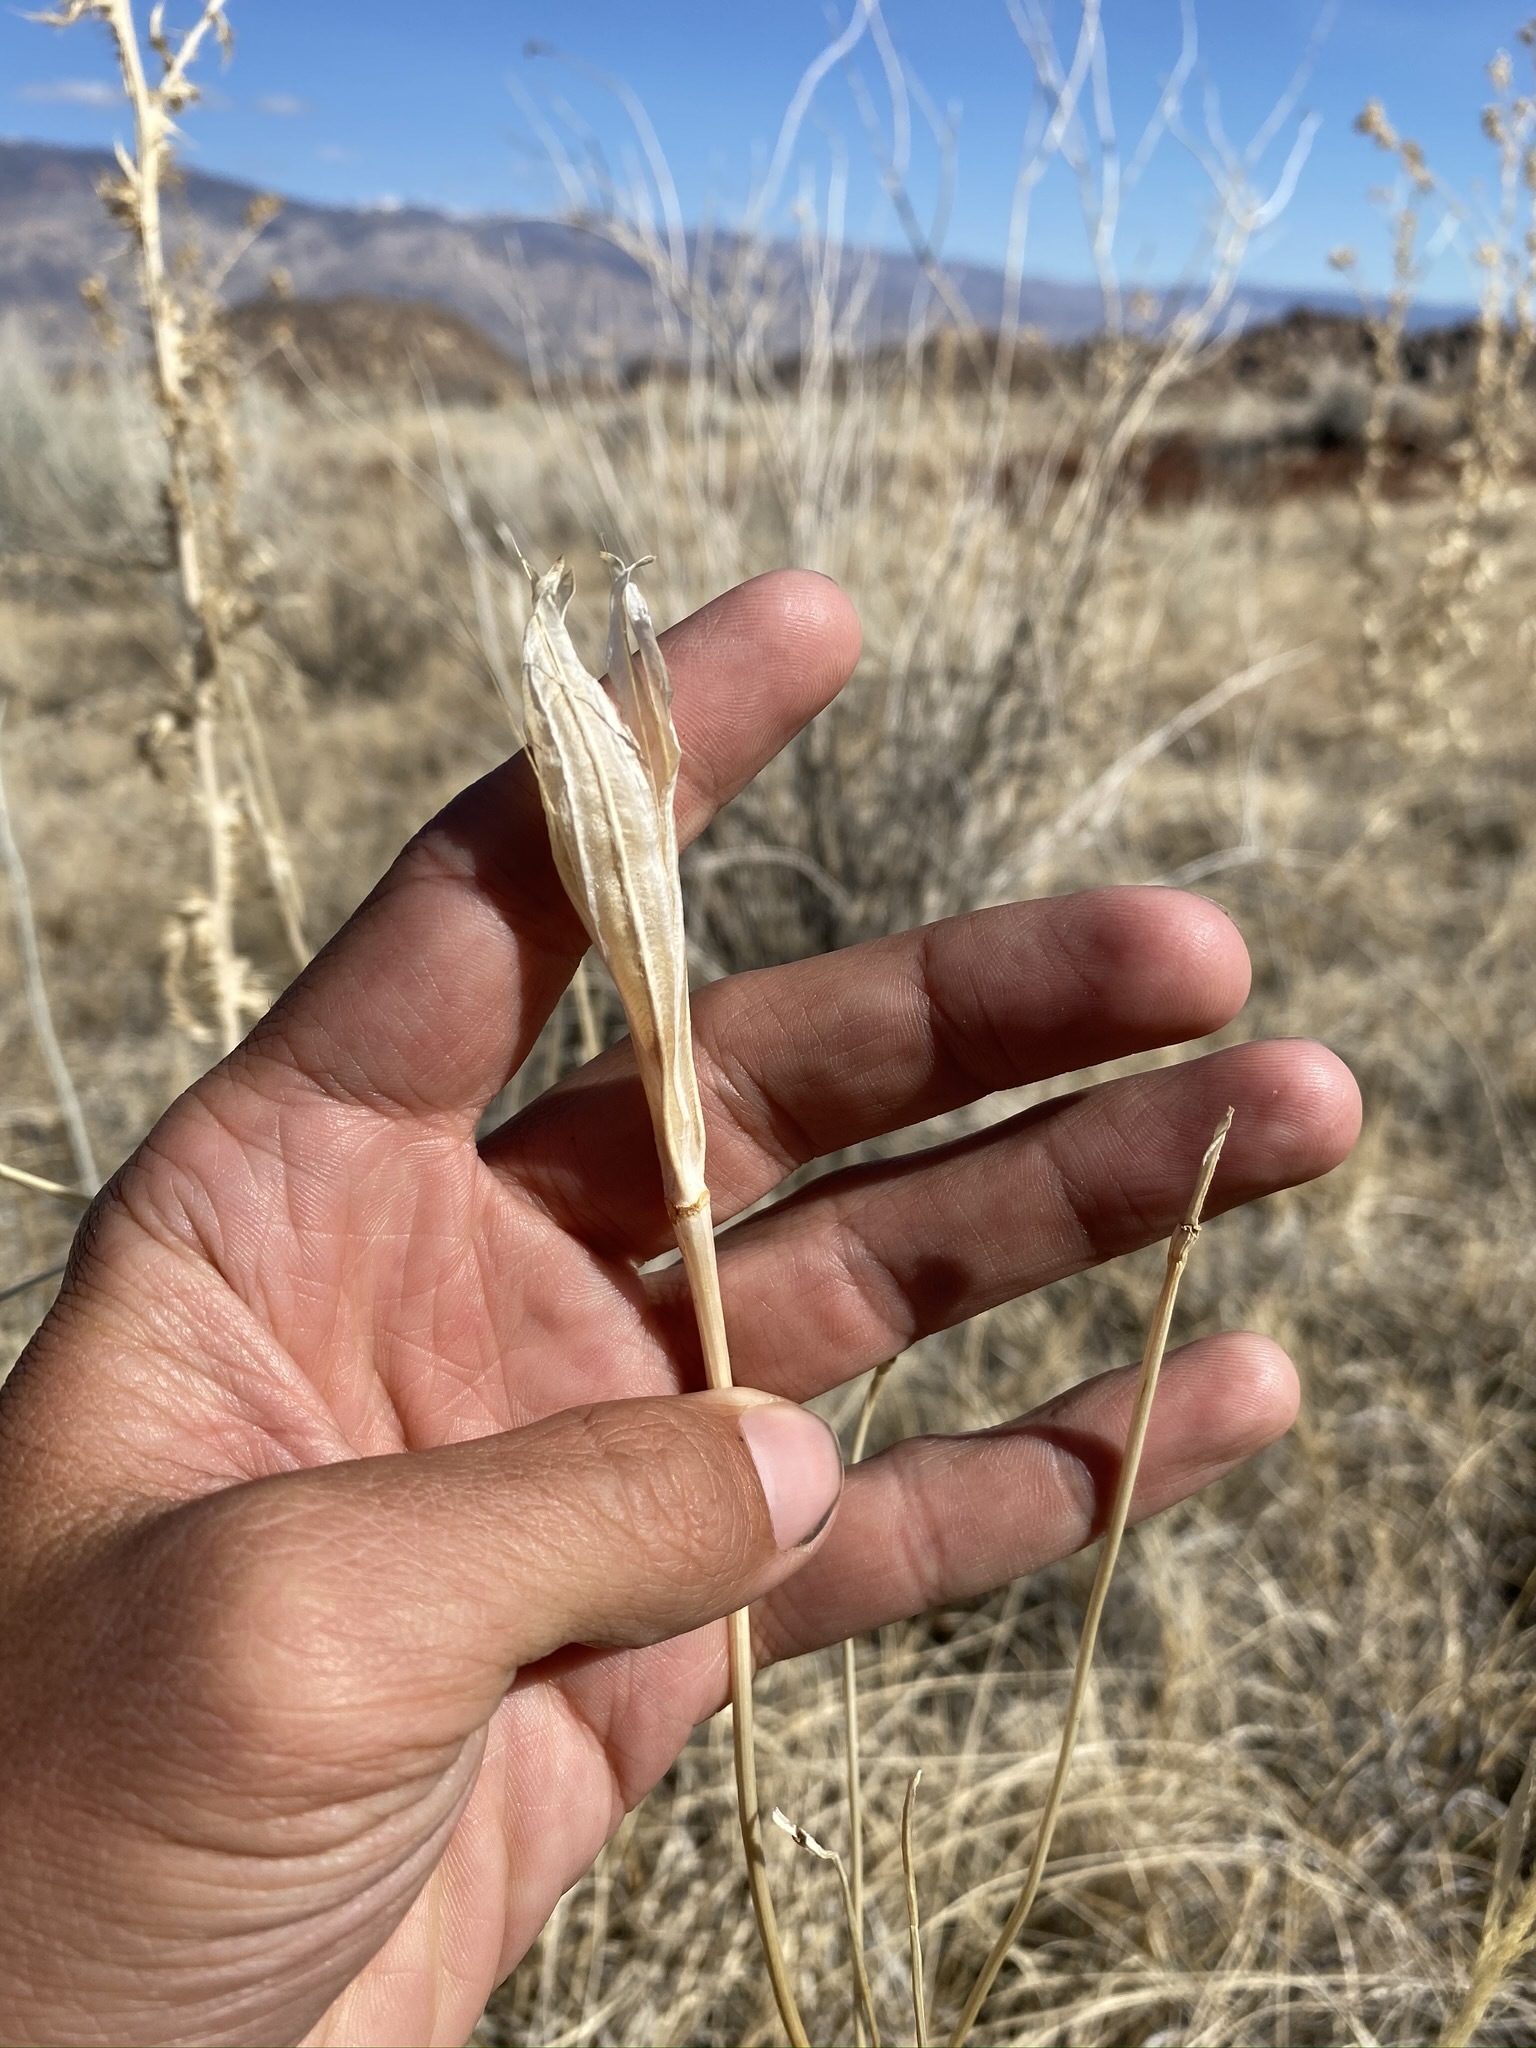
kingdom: Plantae
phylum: Tracheophyta
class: Liliopsida
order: Liliales
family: Liliaceae
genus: Calochortus
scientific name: Calochortus excavatus
